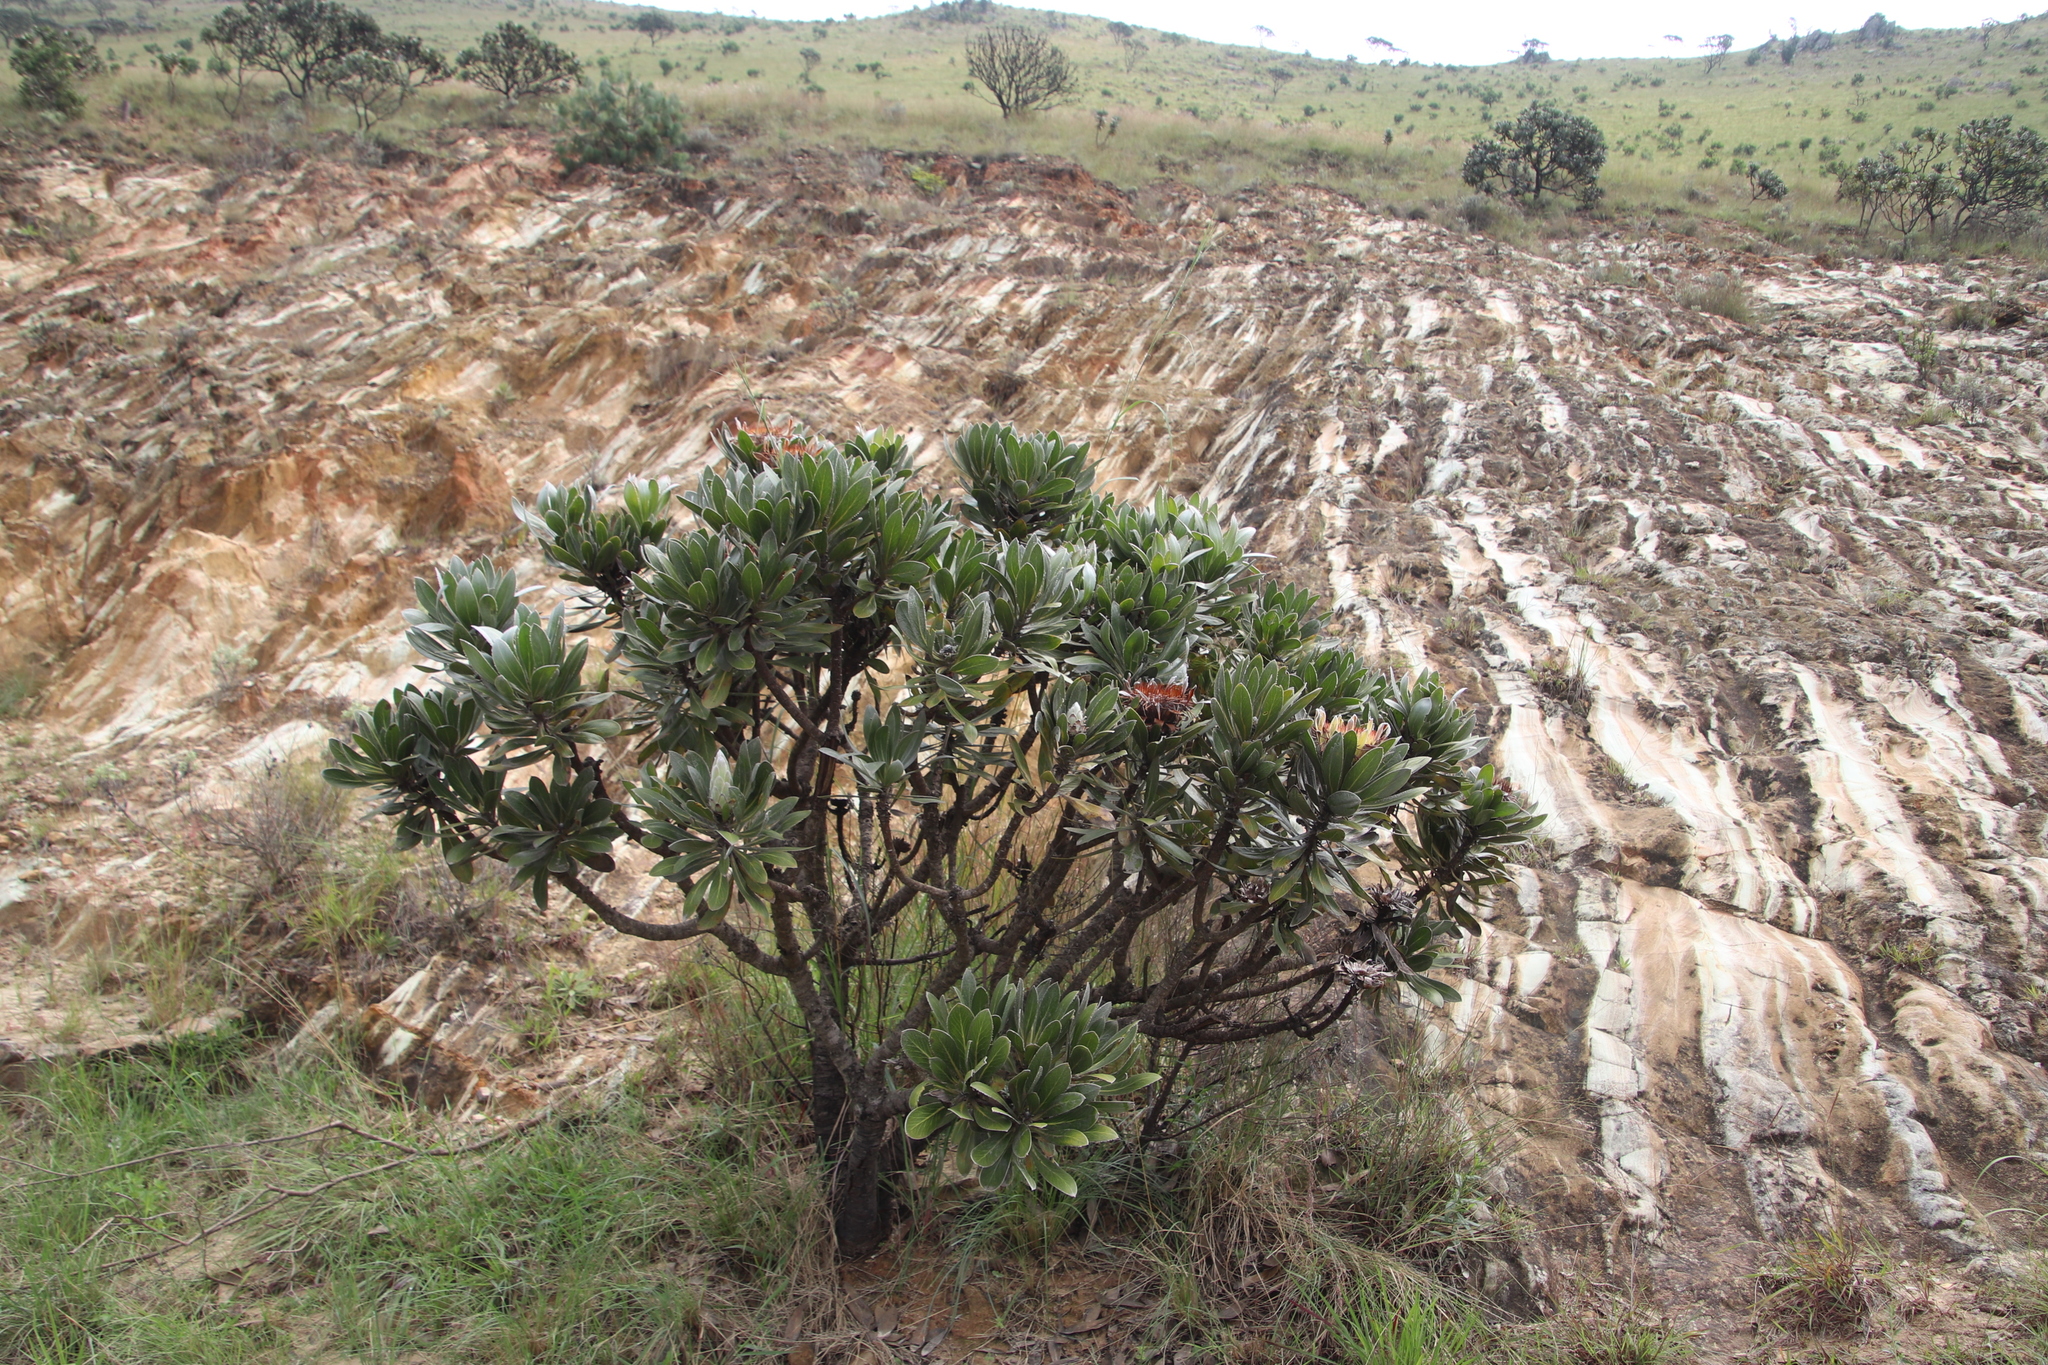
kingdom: Plantae
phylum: Tracheophyta
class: Magnoliopsida
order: Proteales
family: Proteaceae
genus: Protea
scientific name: Protea roupelliae
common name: Silver sugarbush
